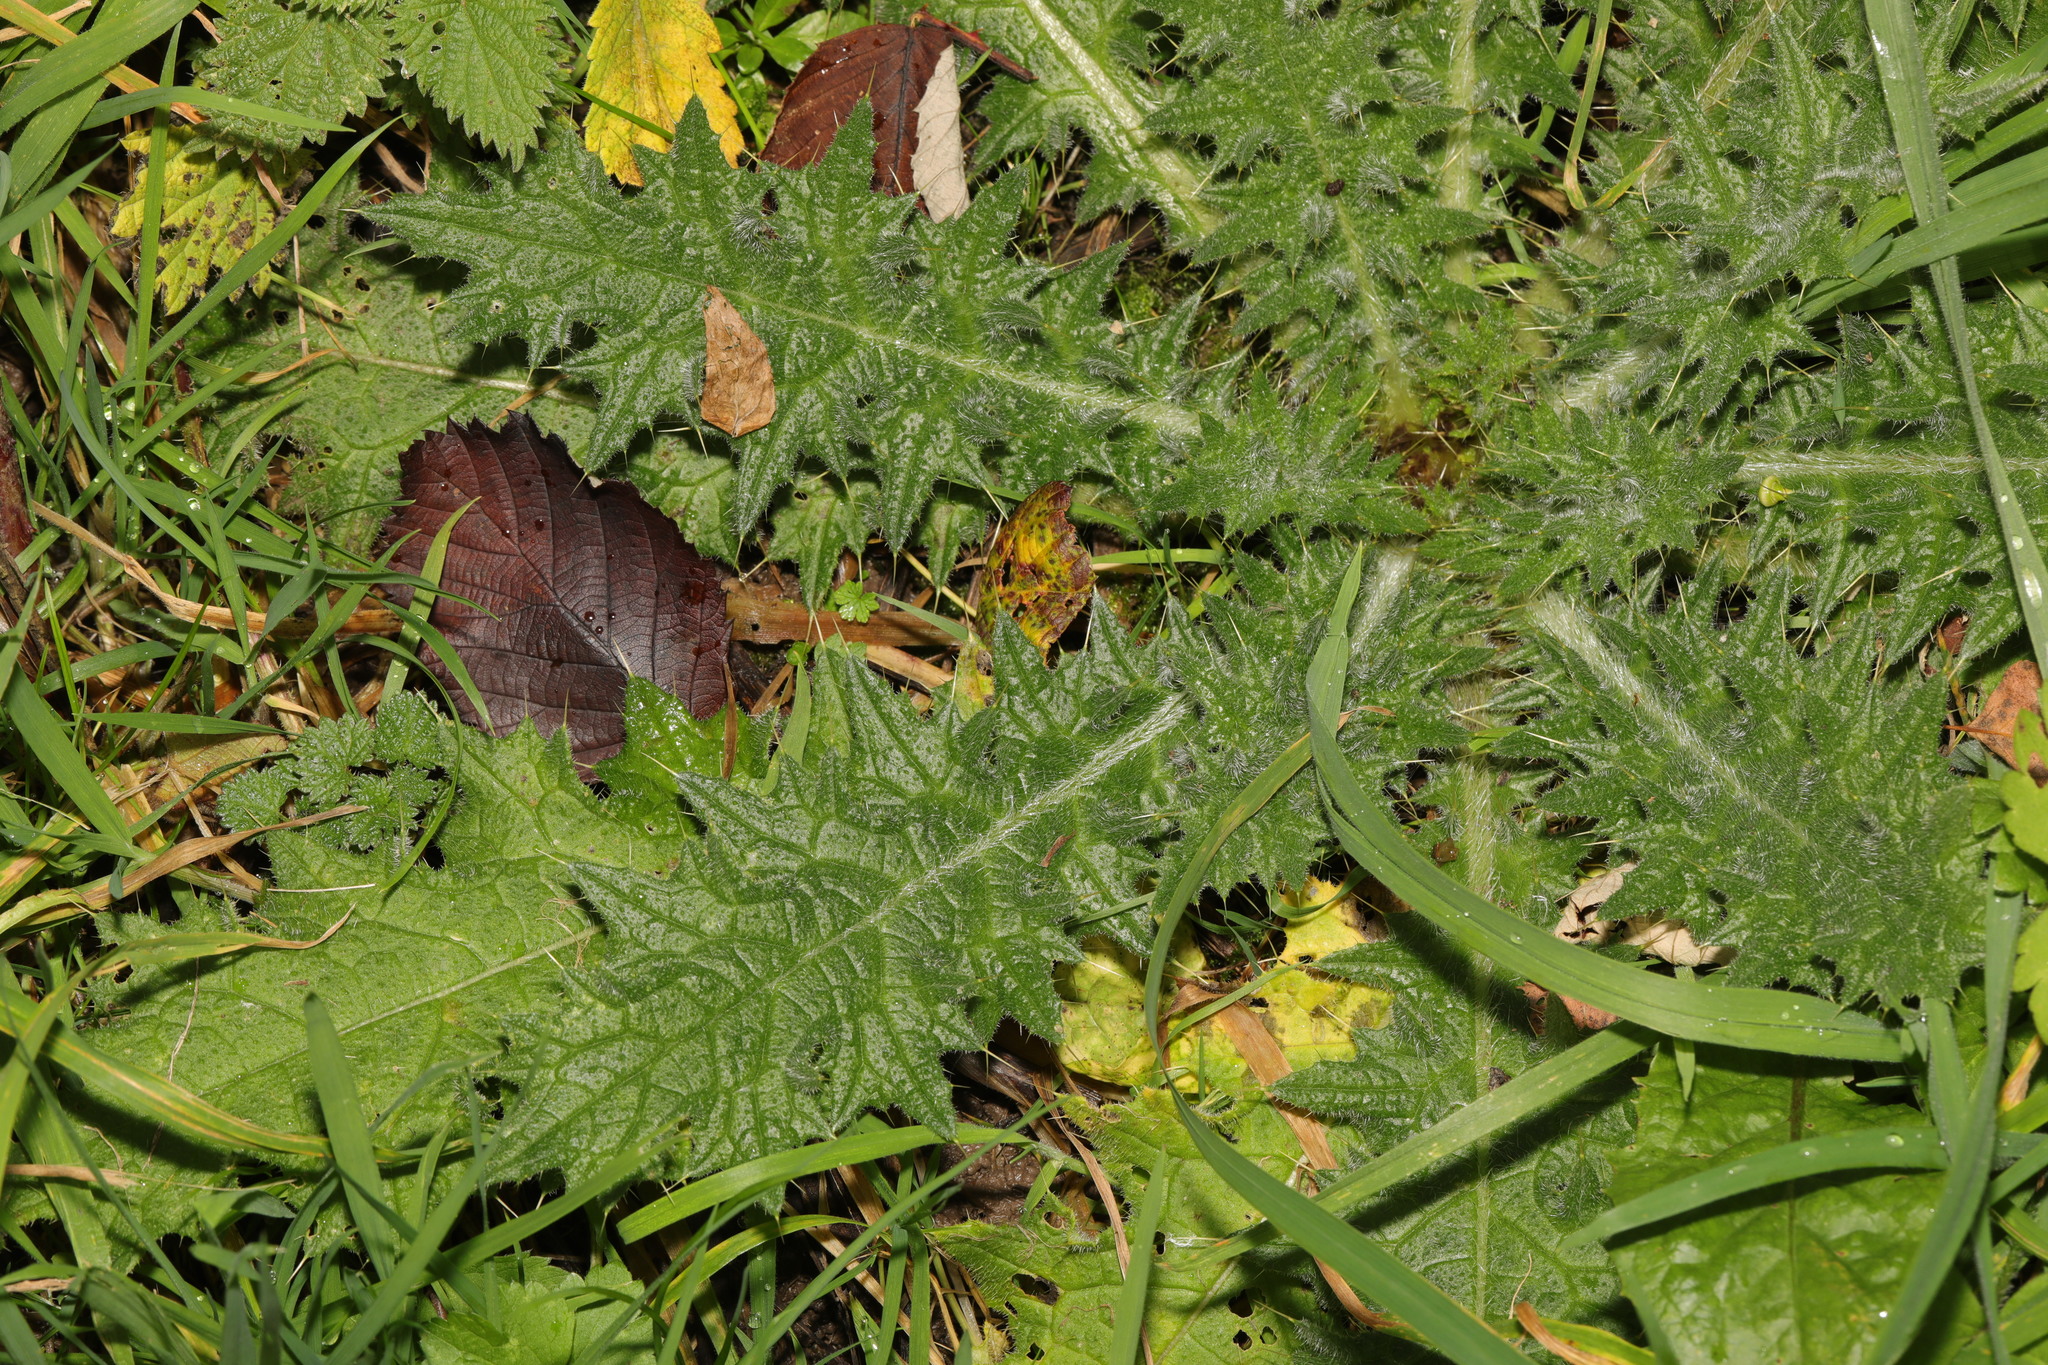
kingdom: Plantae
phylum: Tracheophyta
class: Magnoliopsida
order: Asterales
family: Asteraceae
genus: Cirsium
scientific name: Cirsium vulgare
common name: Bull thistle
